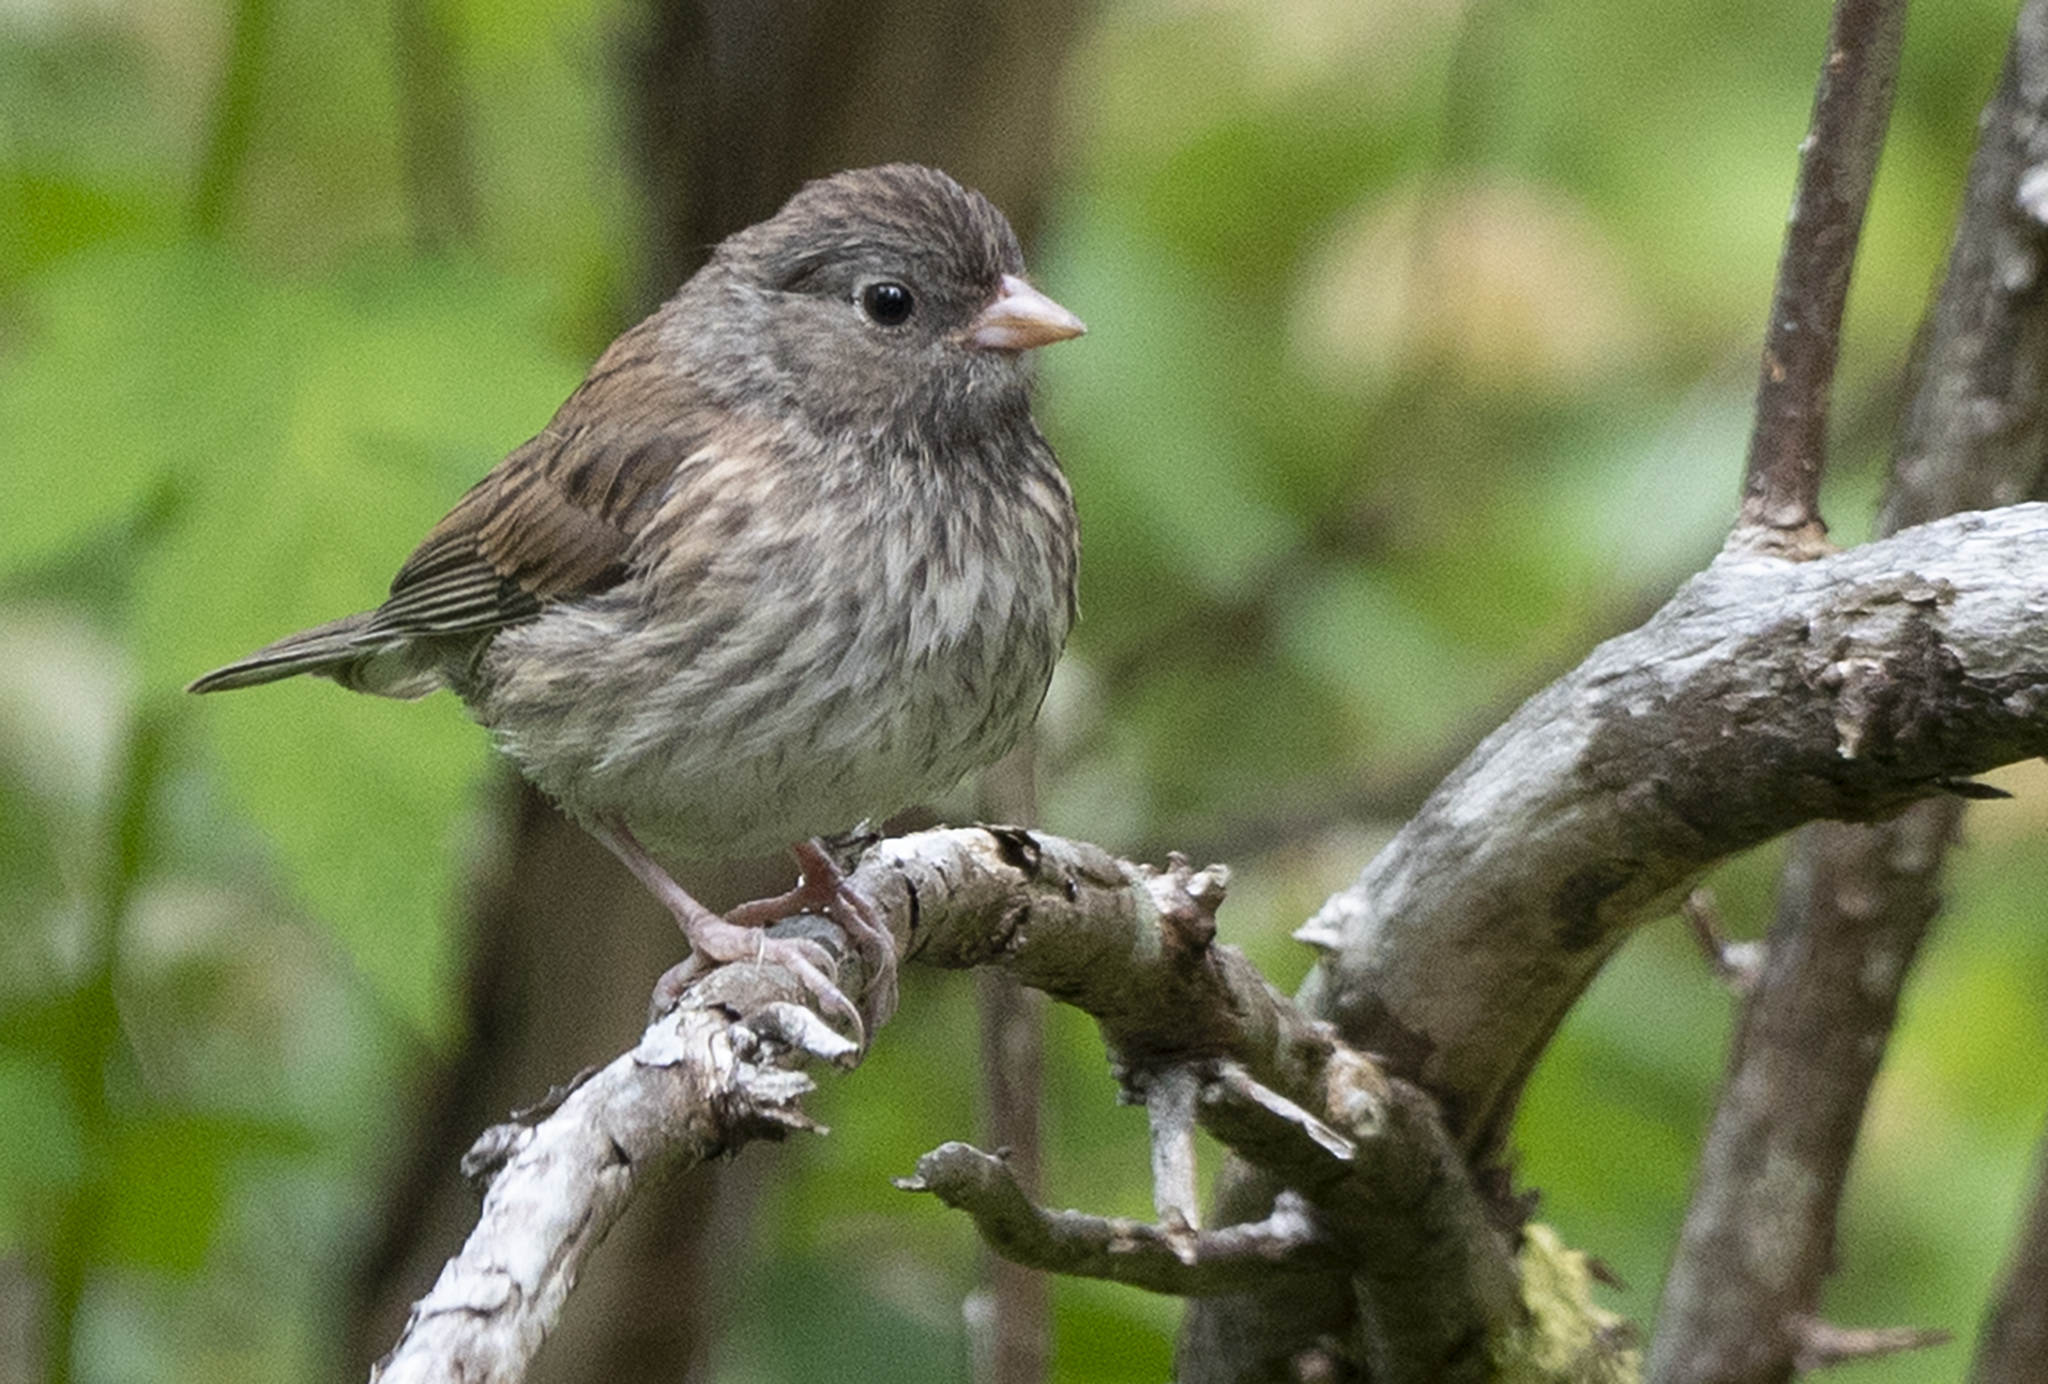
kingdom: Animalia
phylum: Chordata
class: Aves
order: Passeriformes
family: Passerellidae
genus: Junco
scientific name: Junco hyemalis
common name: Dark-eyed junco
